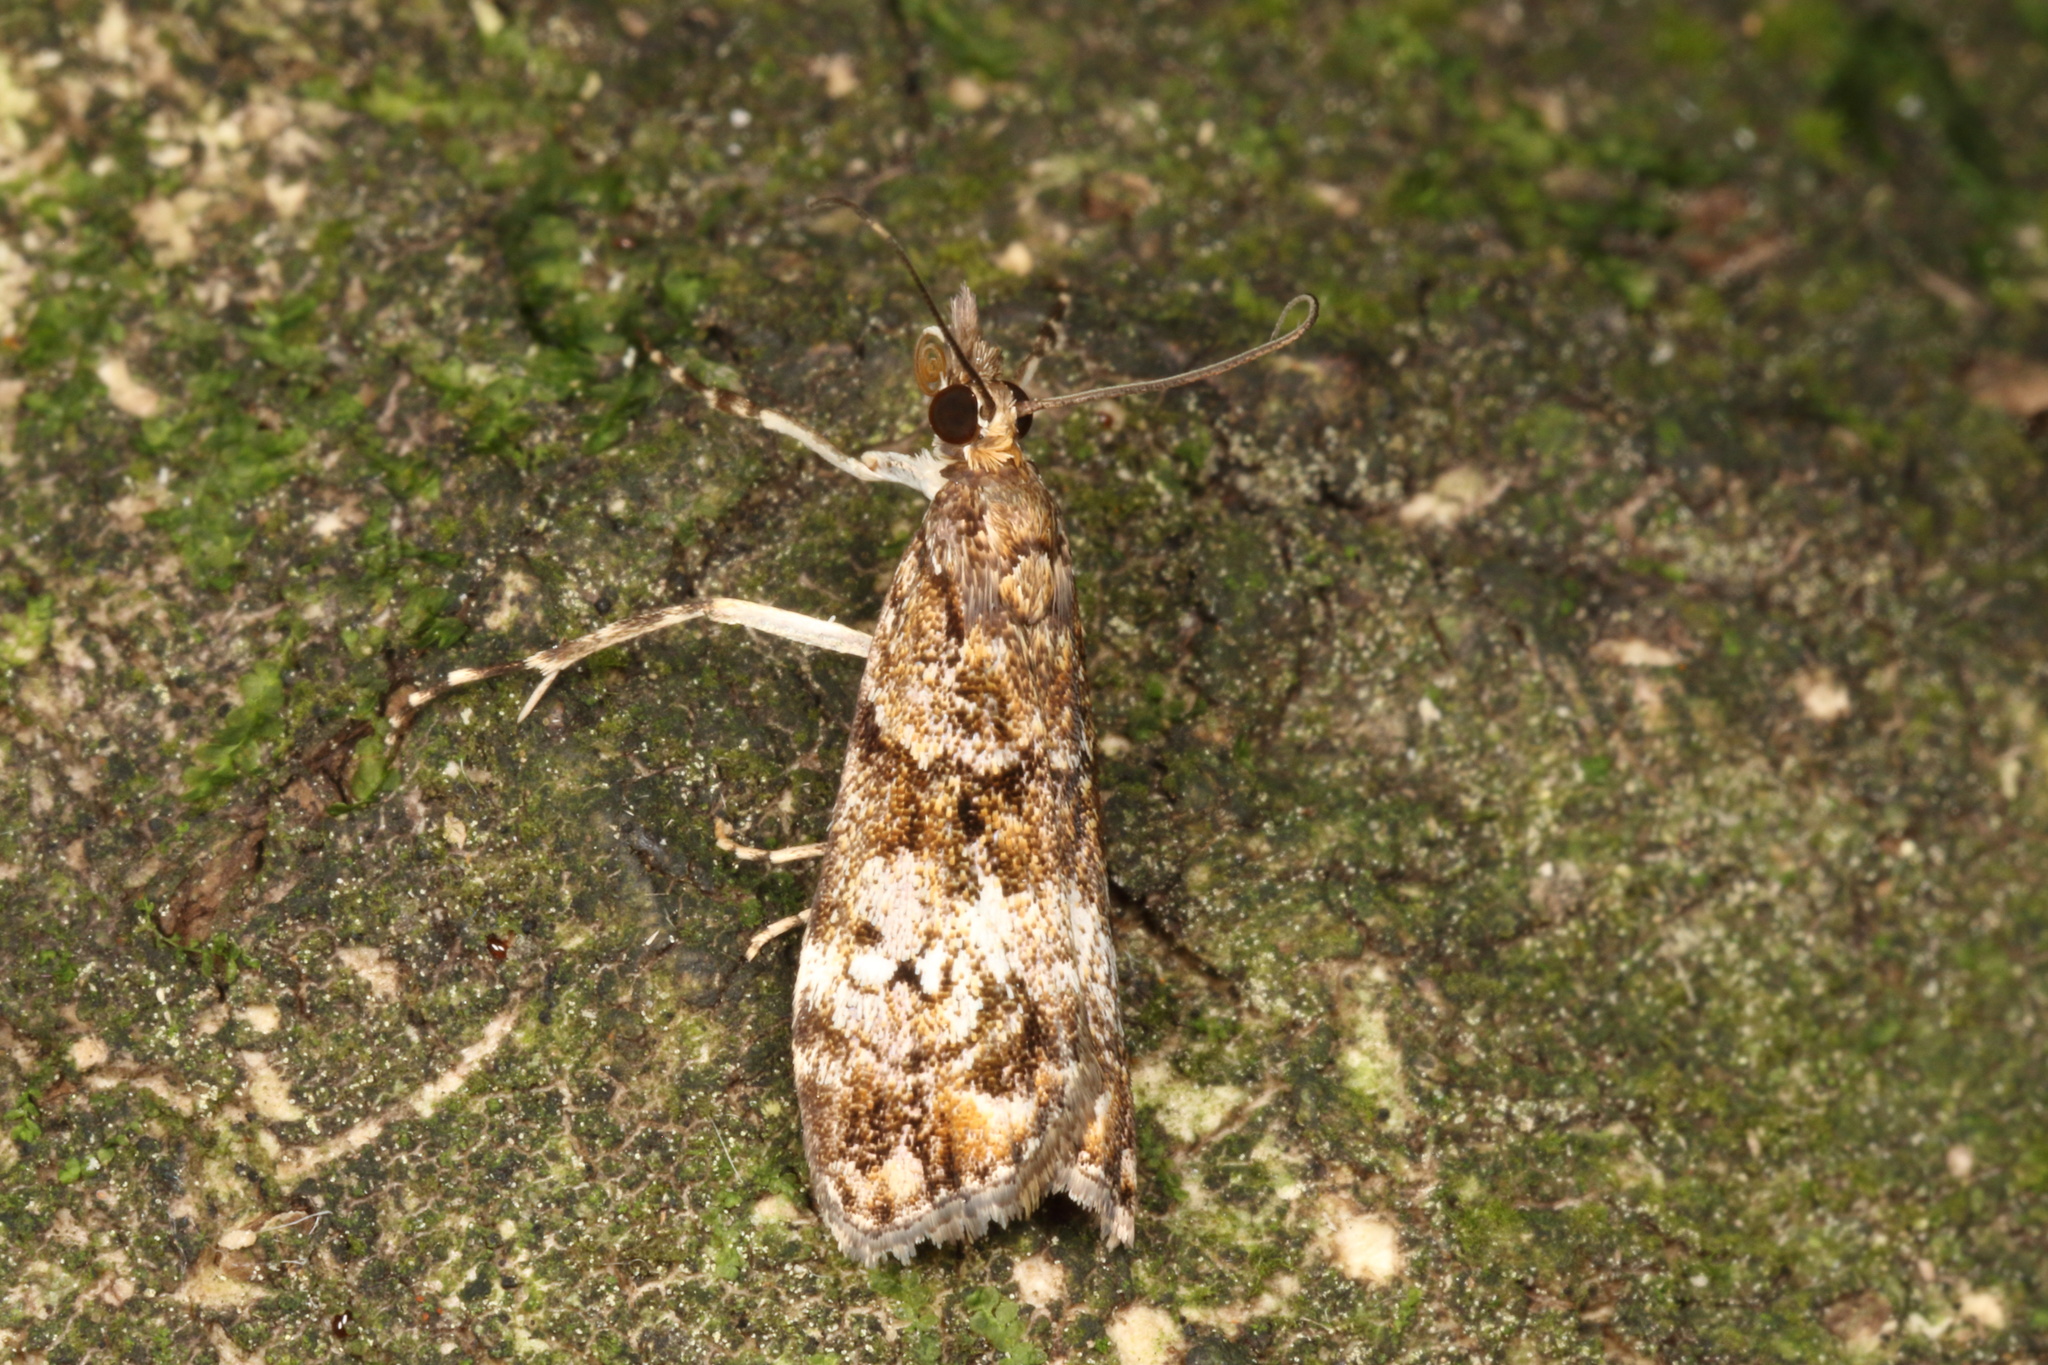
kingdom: Animalia
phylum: Arthropoda
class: Insecta
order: Lepidoptera
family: Crambidae
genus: Eudonia
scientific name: Eudonia minualis
